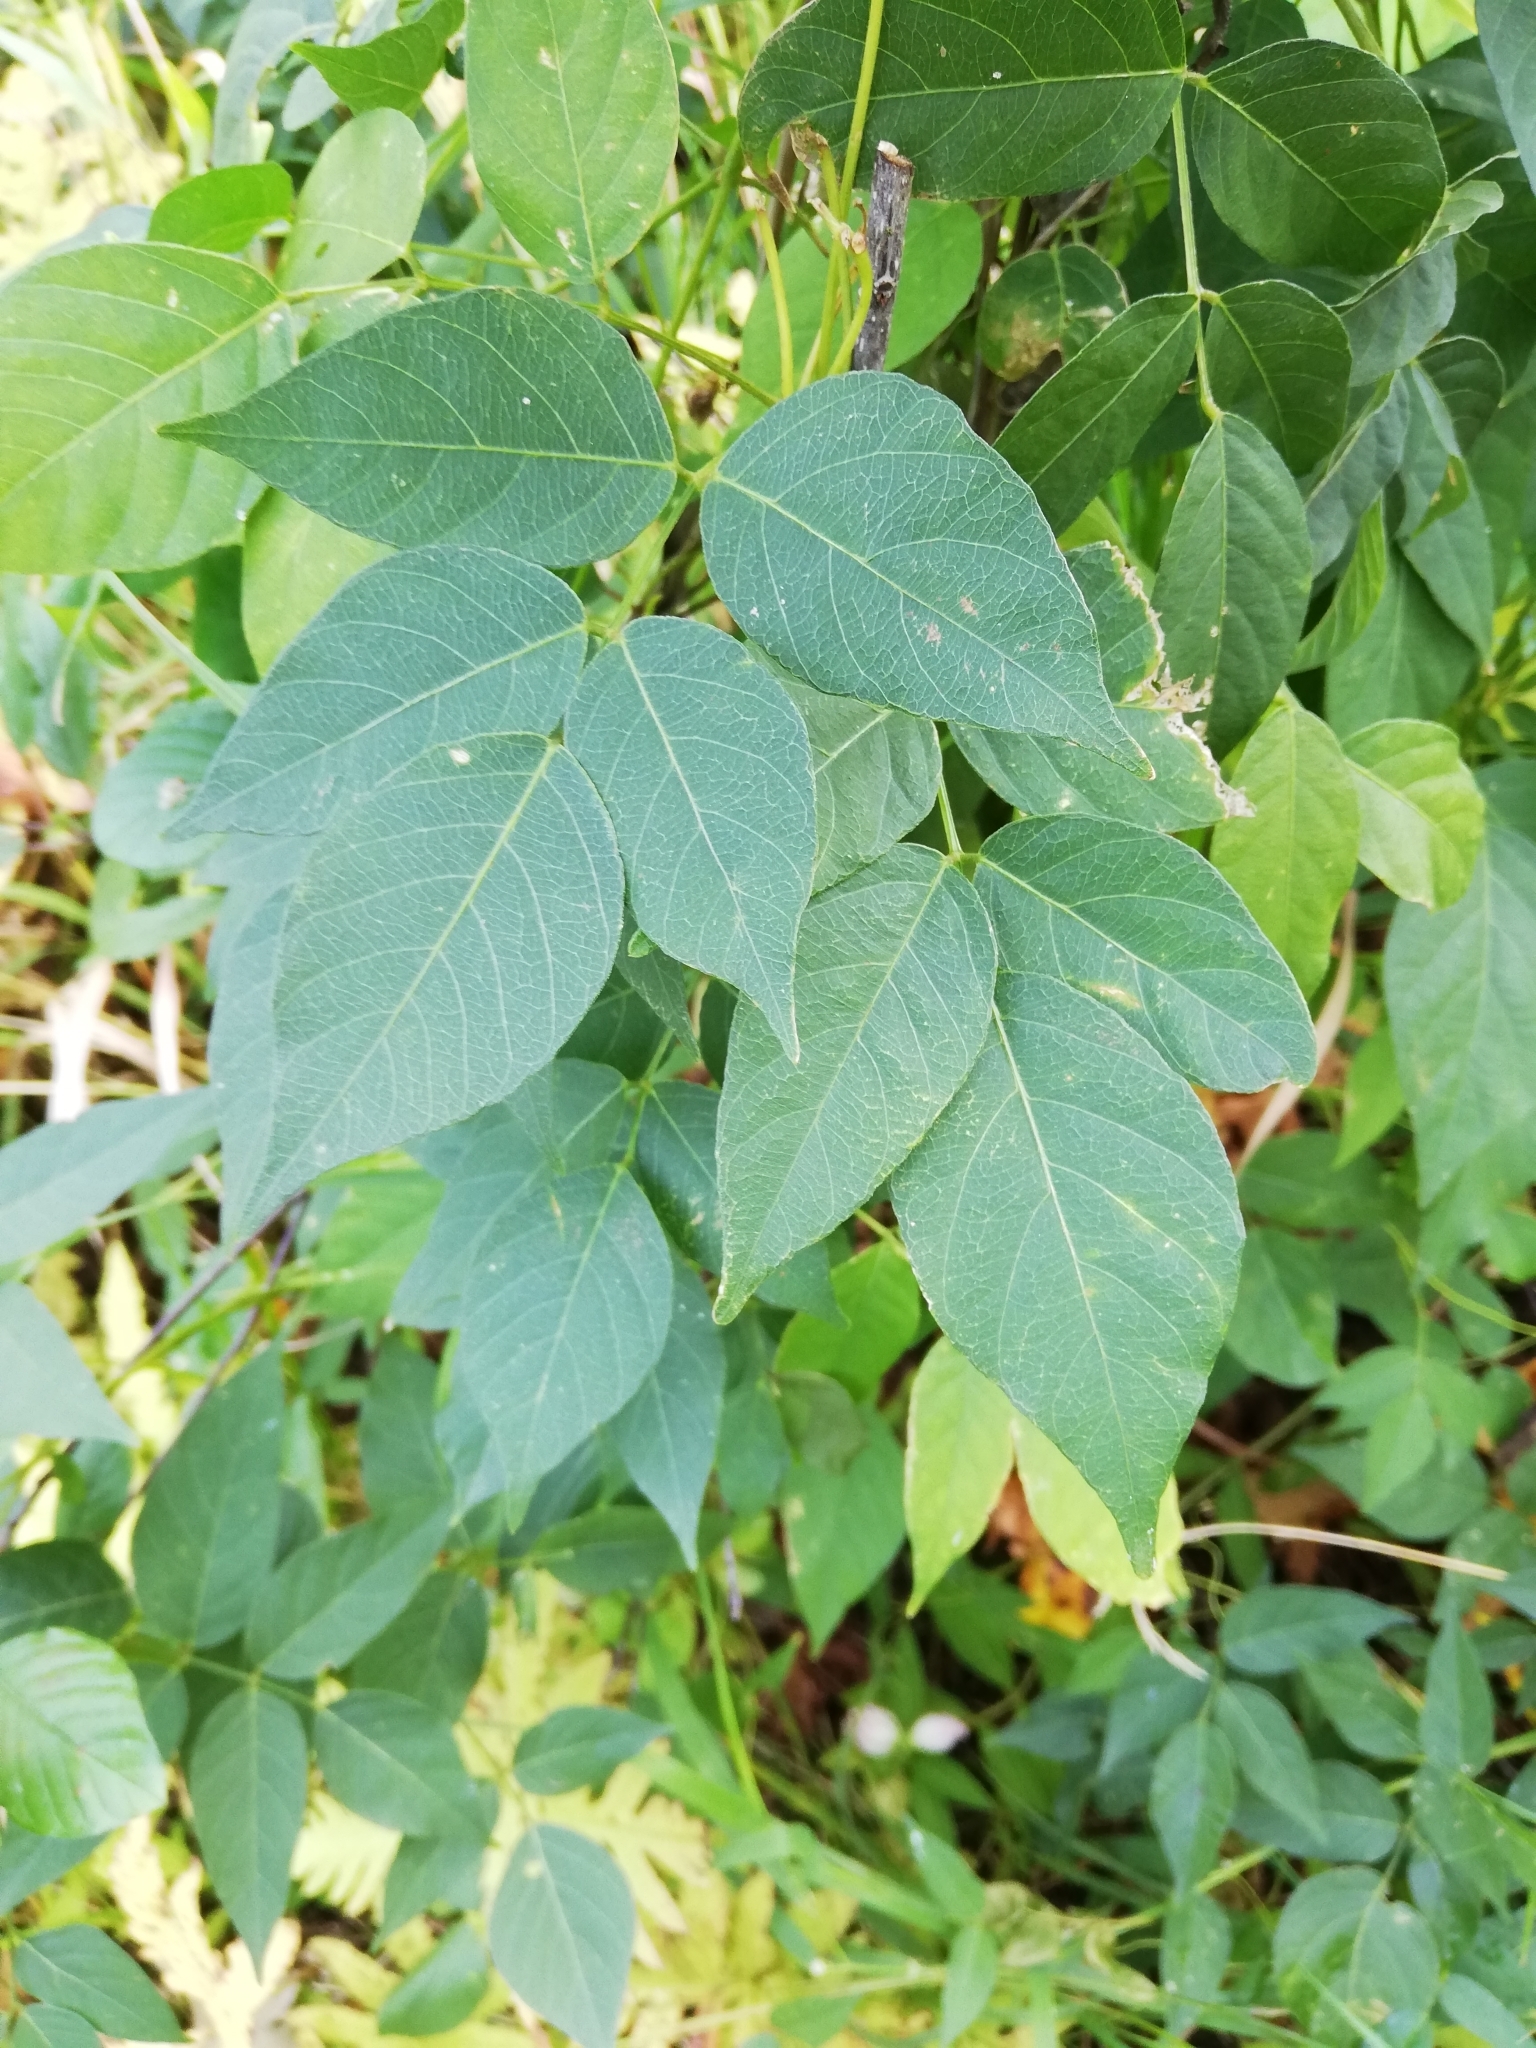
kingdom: Plantae
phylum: Tracheophyta
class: Magnoliopsida
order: Fabales
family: Fabaceae
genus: Apios
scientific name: Apios americana
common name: American potato-bean
